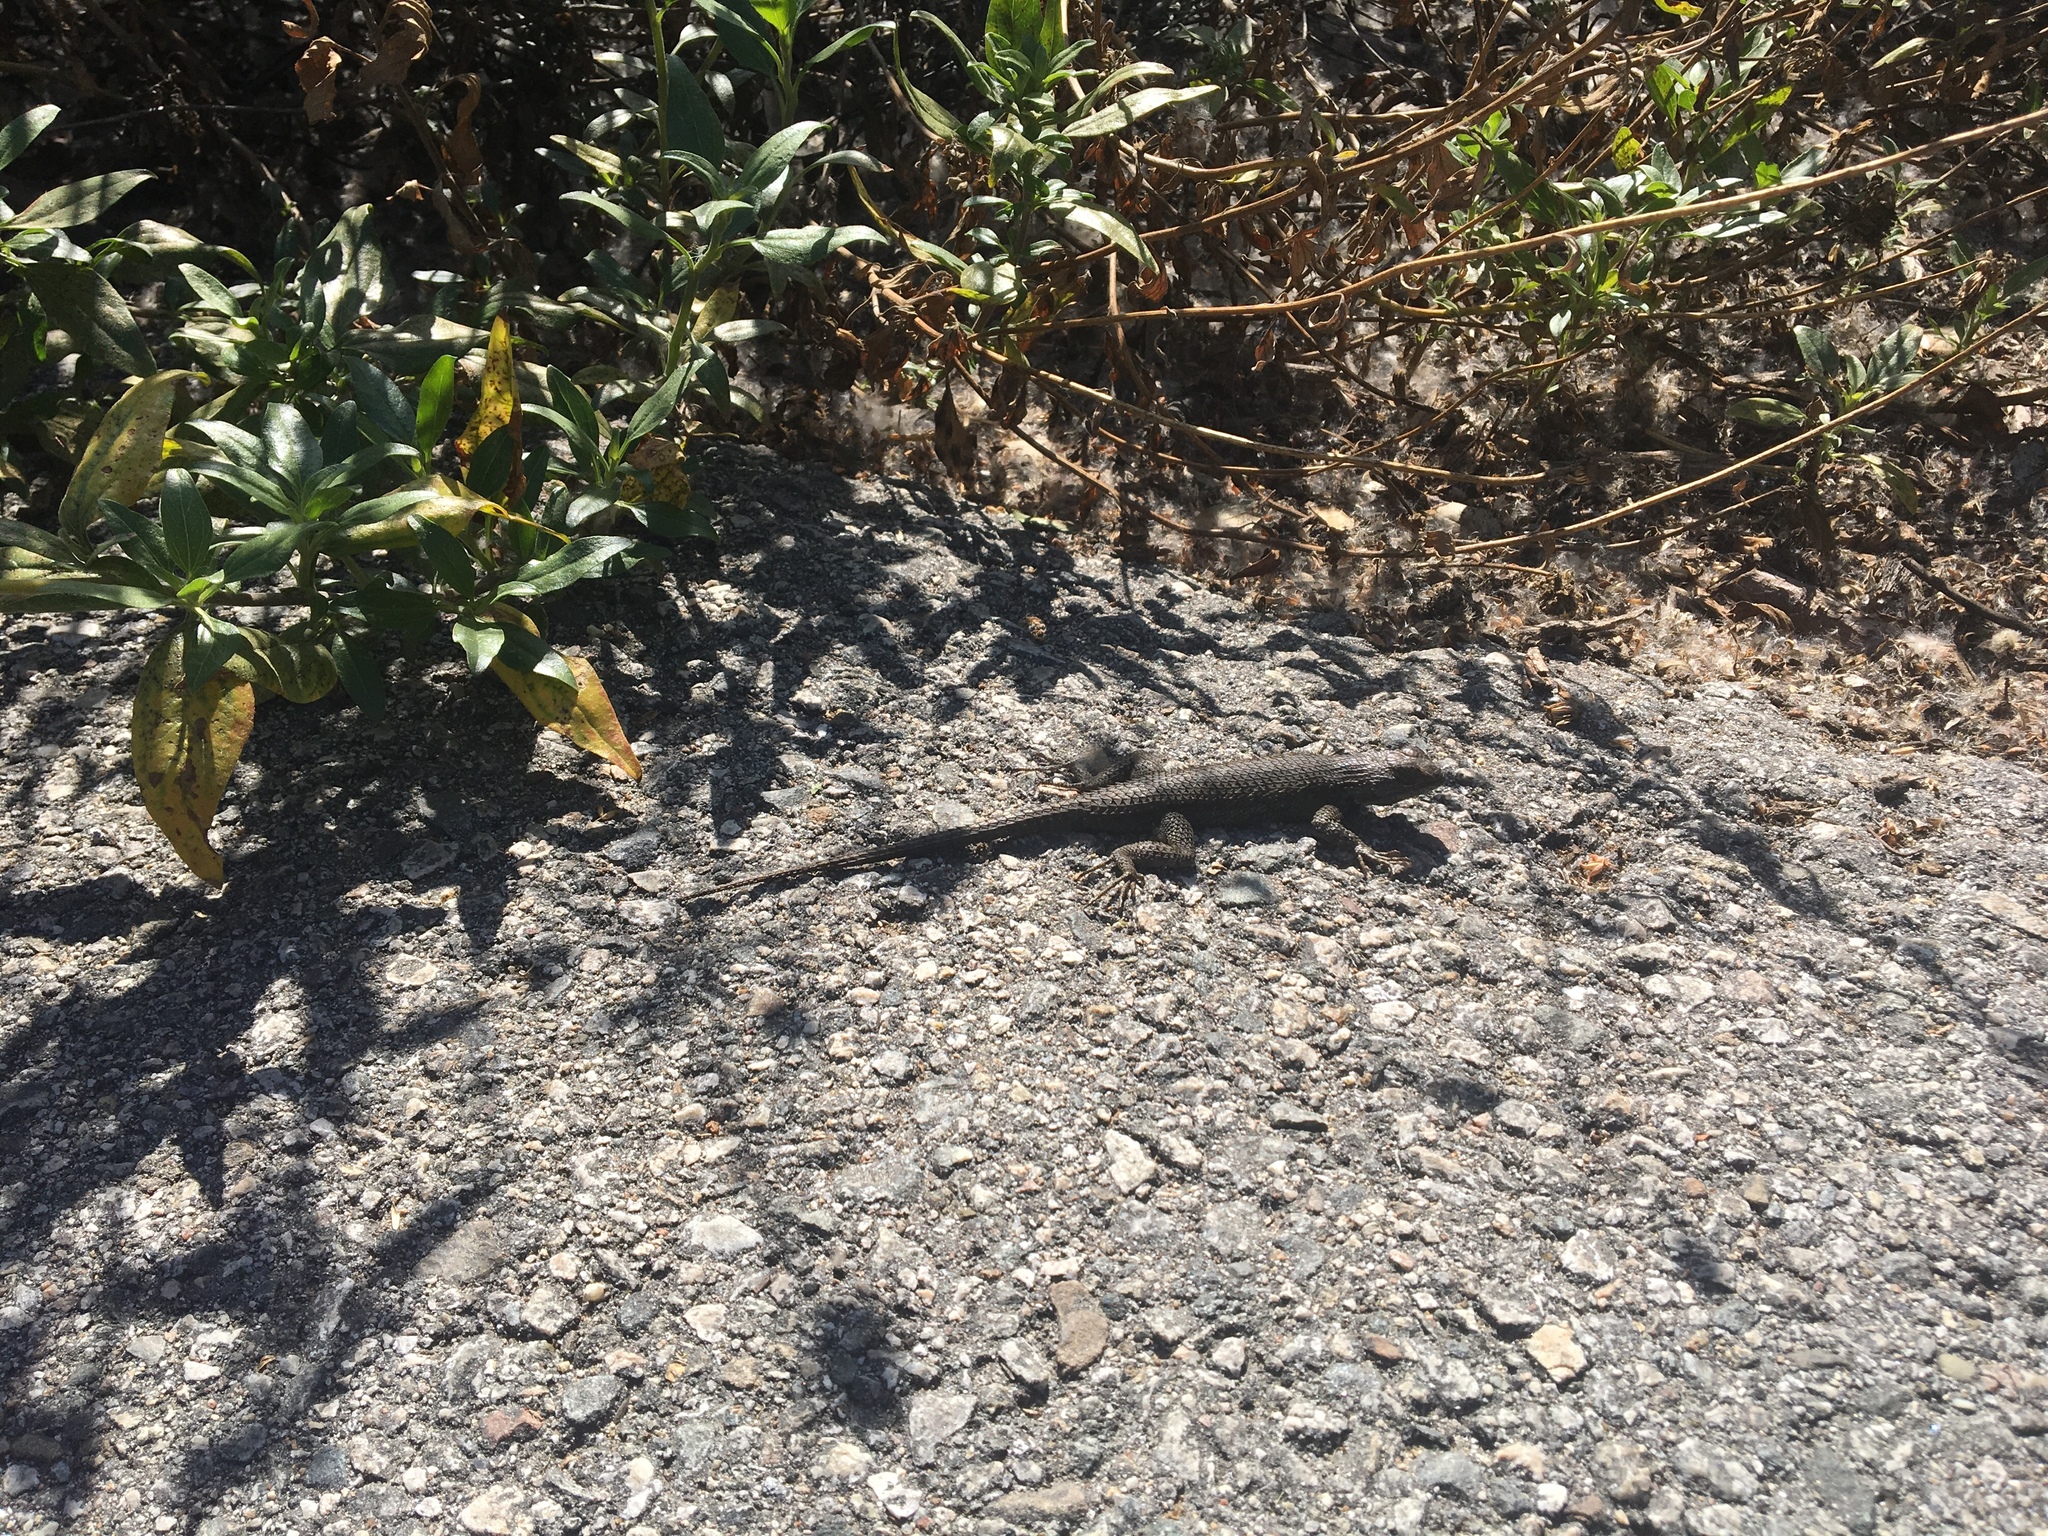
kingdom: Animalia
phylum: Chordata
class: Squamata
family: Phrynosomatidae
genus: Sceloporus
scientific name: Sceloporus occidentalis
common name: Western fence lizard
